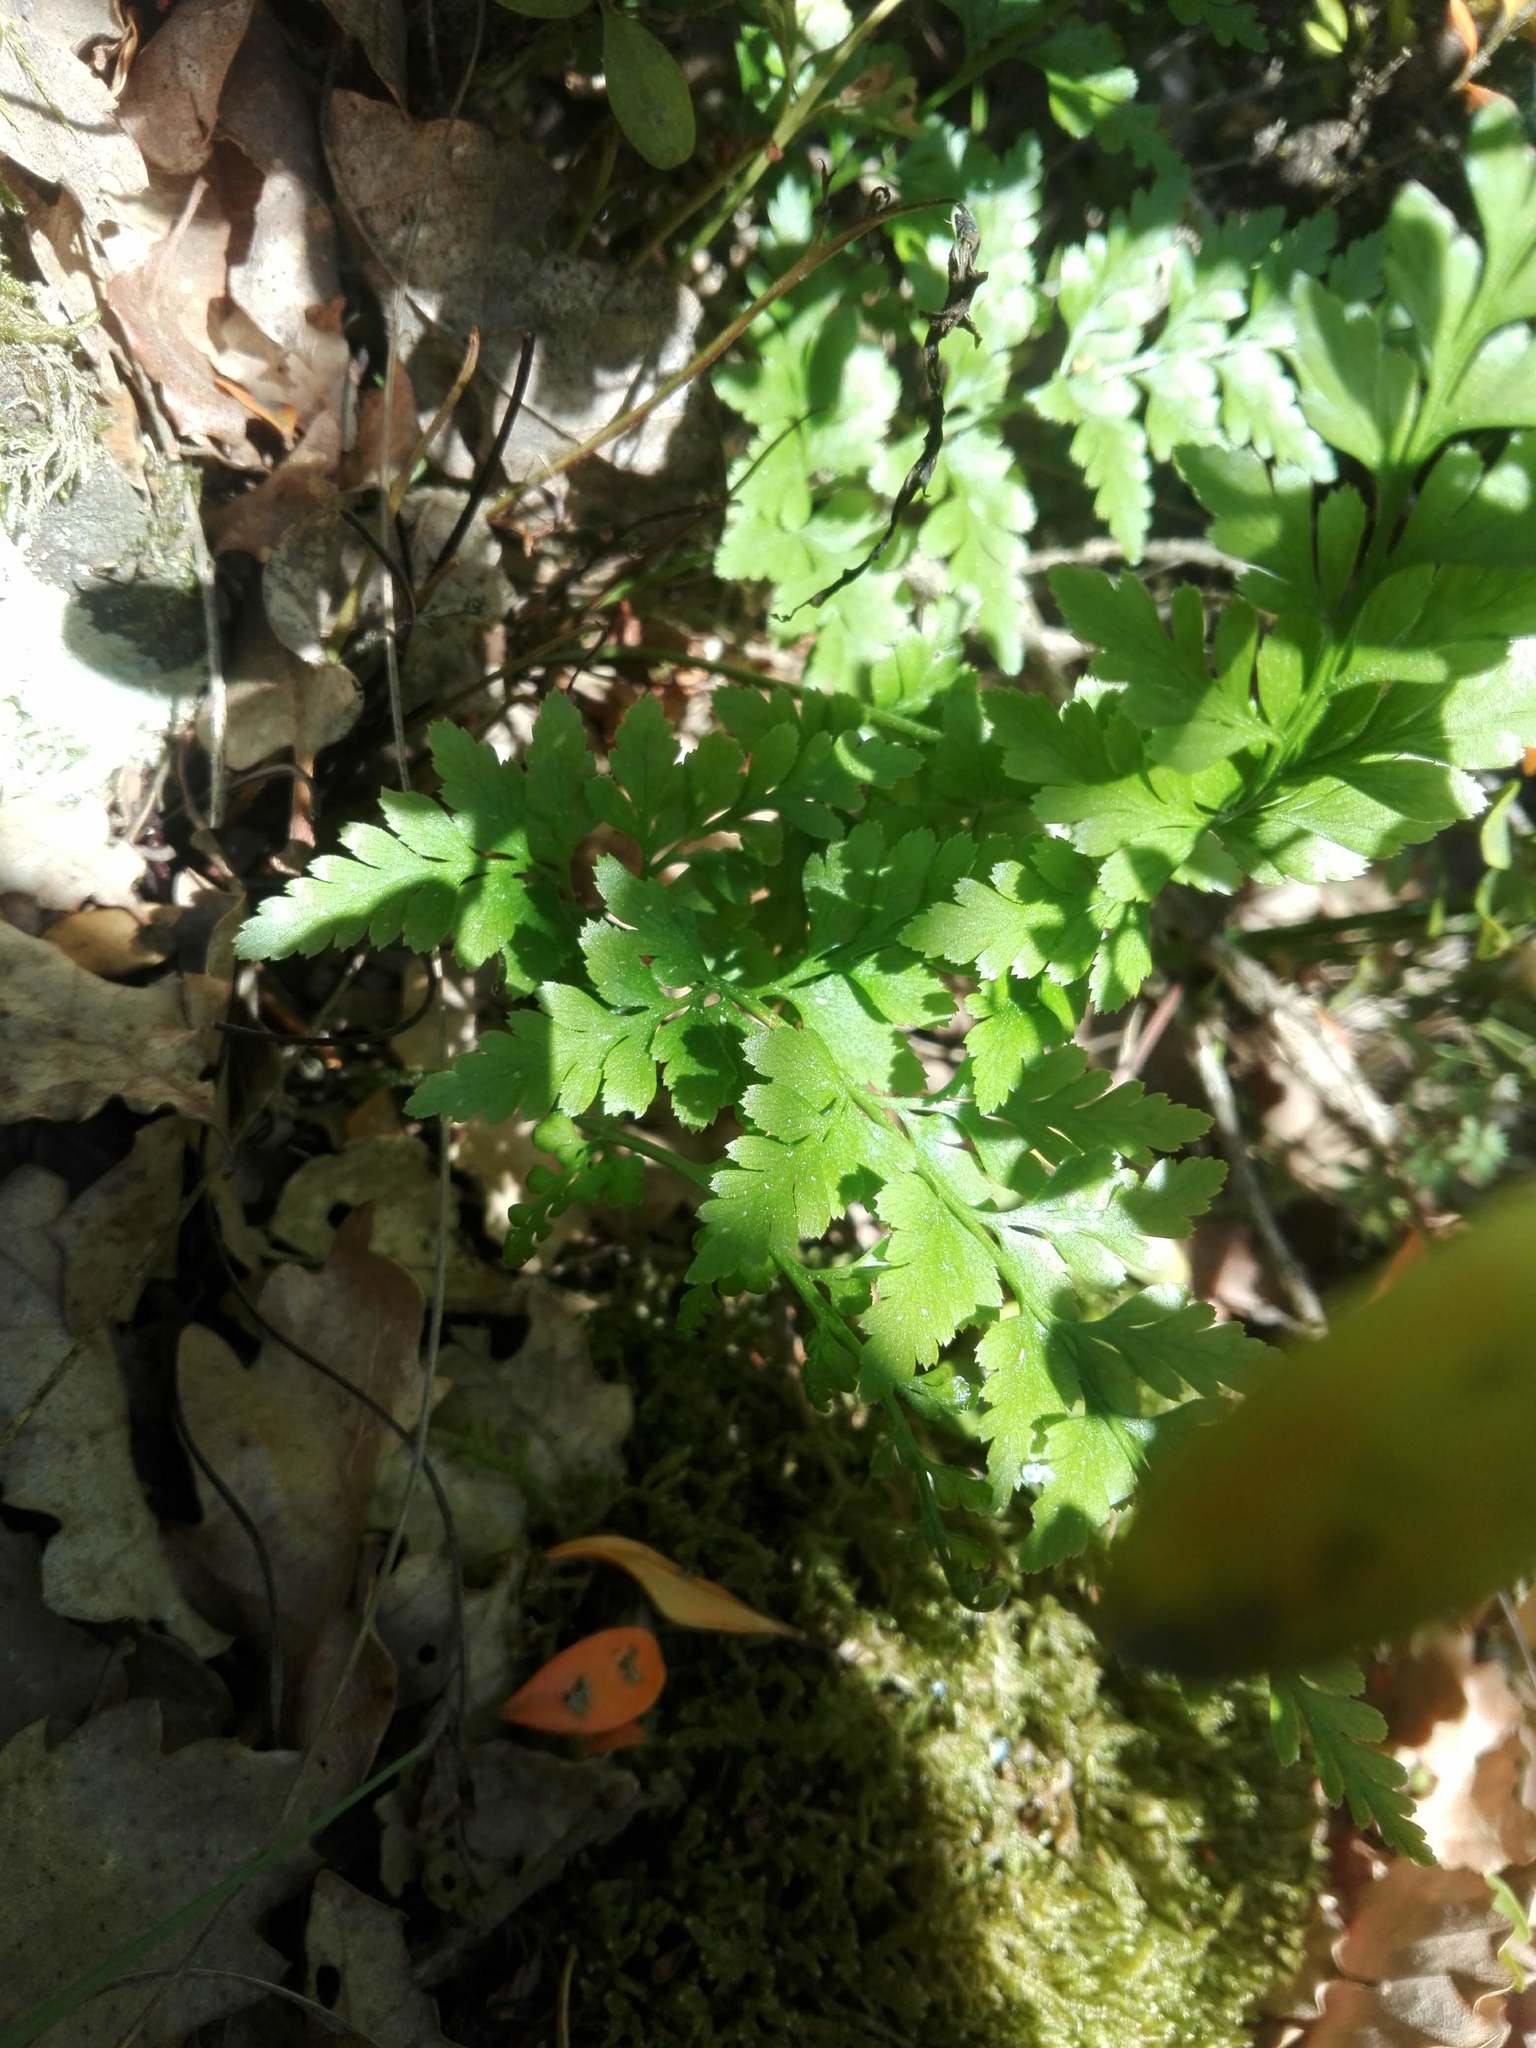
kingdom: Plantae
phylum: Tracheophyta
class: Polypodiopsida
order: Polypodiales
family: Aspleniaceae
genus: Asplenium
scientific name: Asplenium adiantum-nigrum
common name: Black spleenwort
